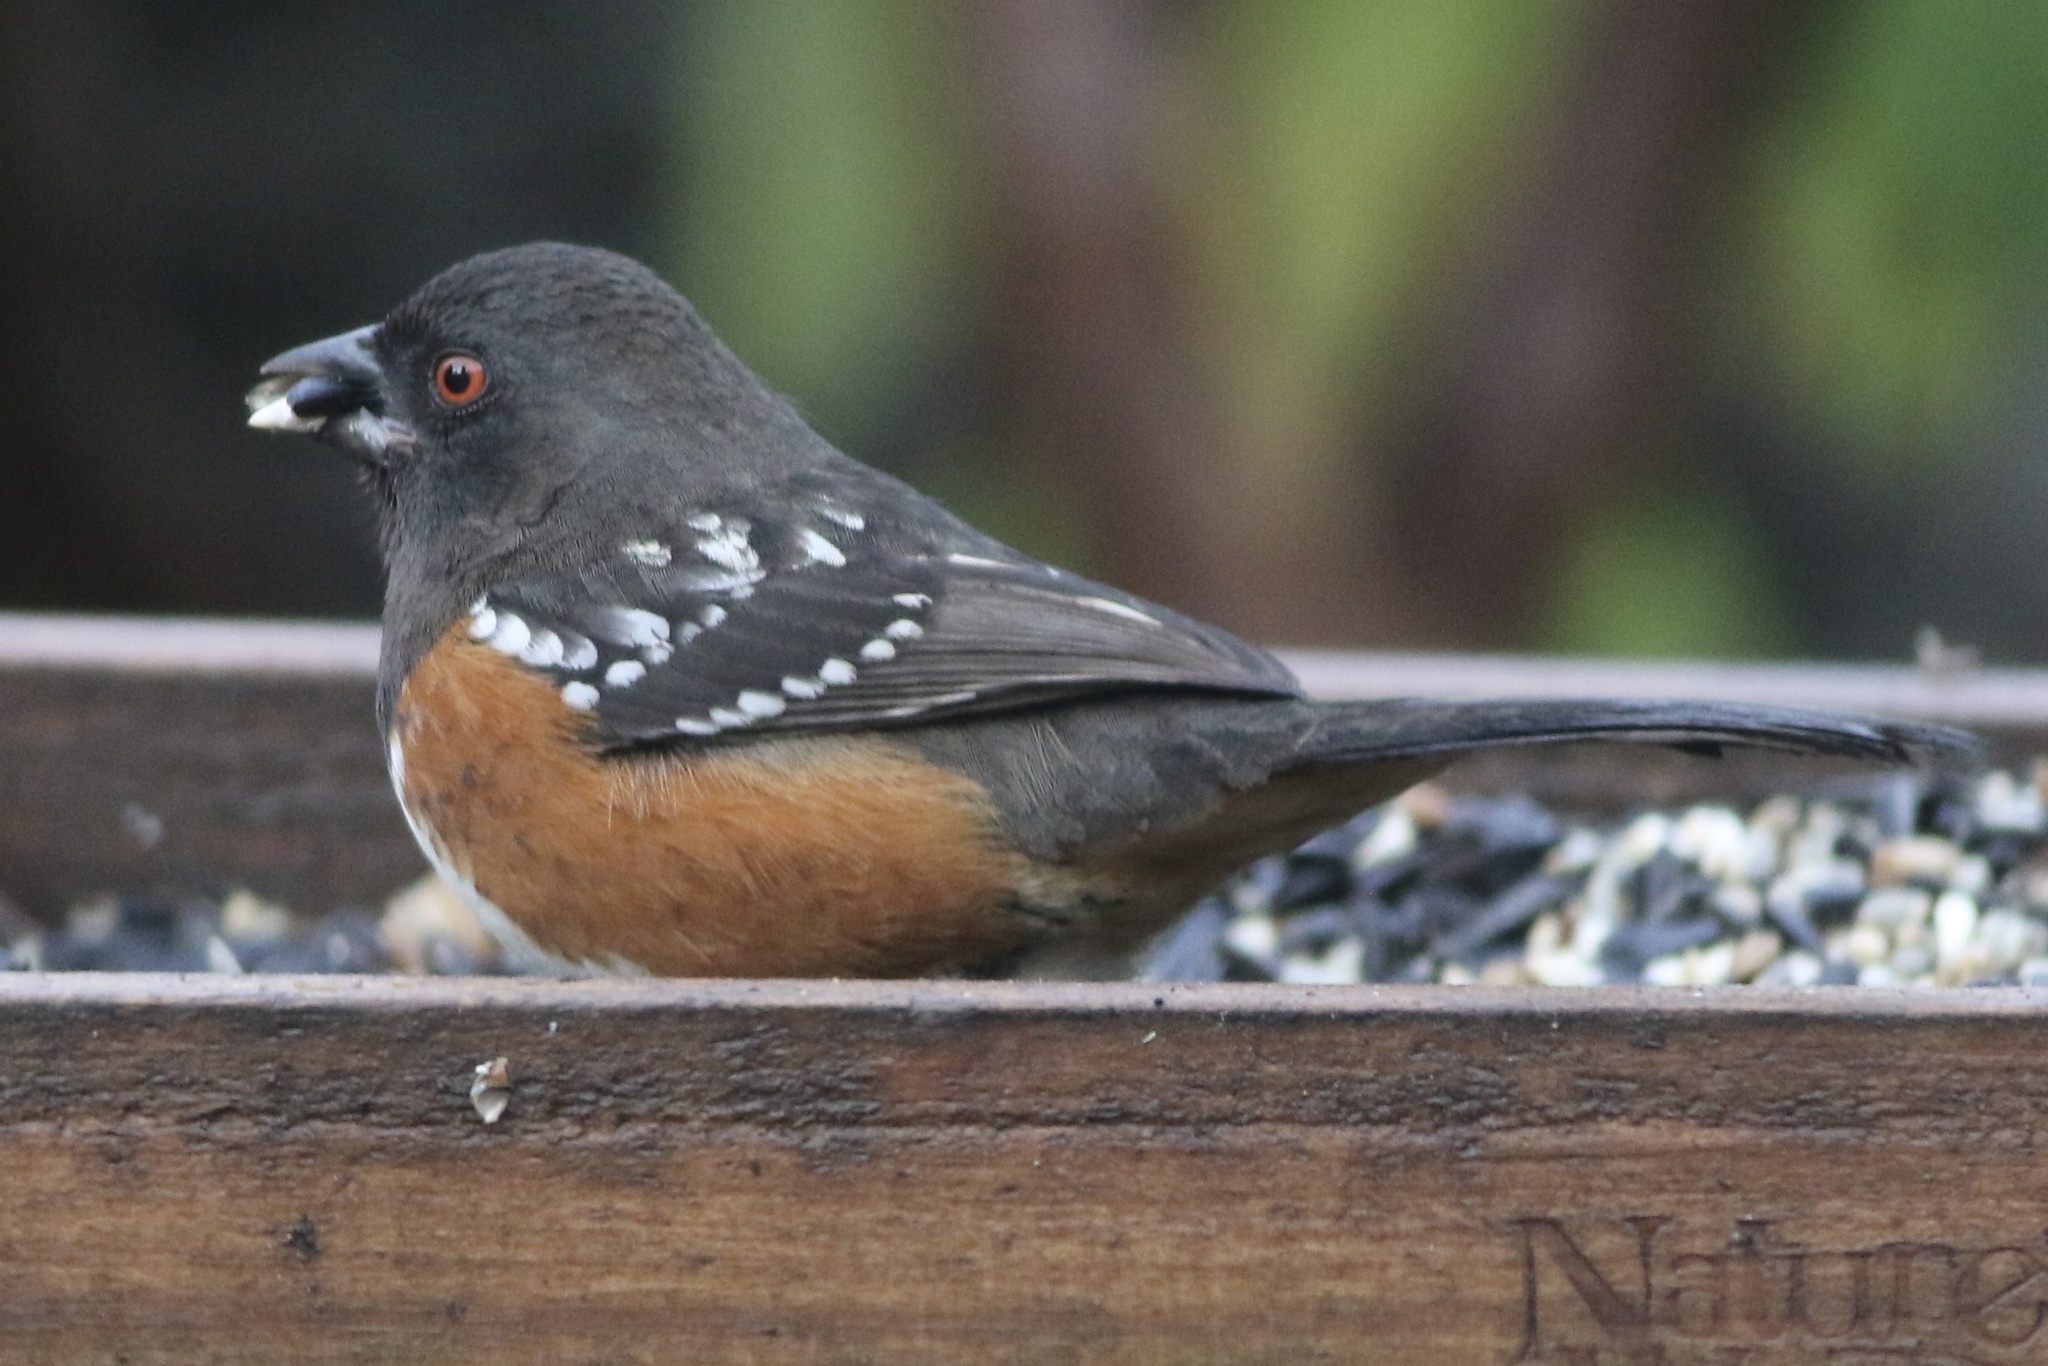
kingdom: Animalia
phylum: Chordata
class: Aves
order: Passeriformes
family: Passerellidae
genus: Pipilo
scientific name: Pipilo maculatus
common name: Spotted towhee
